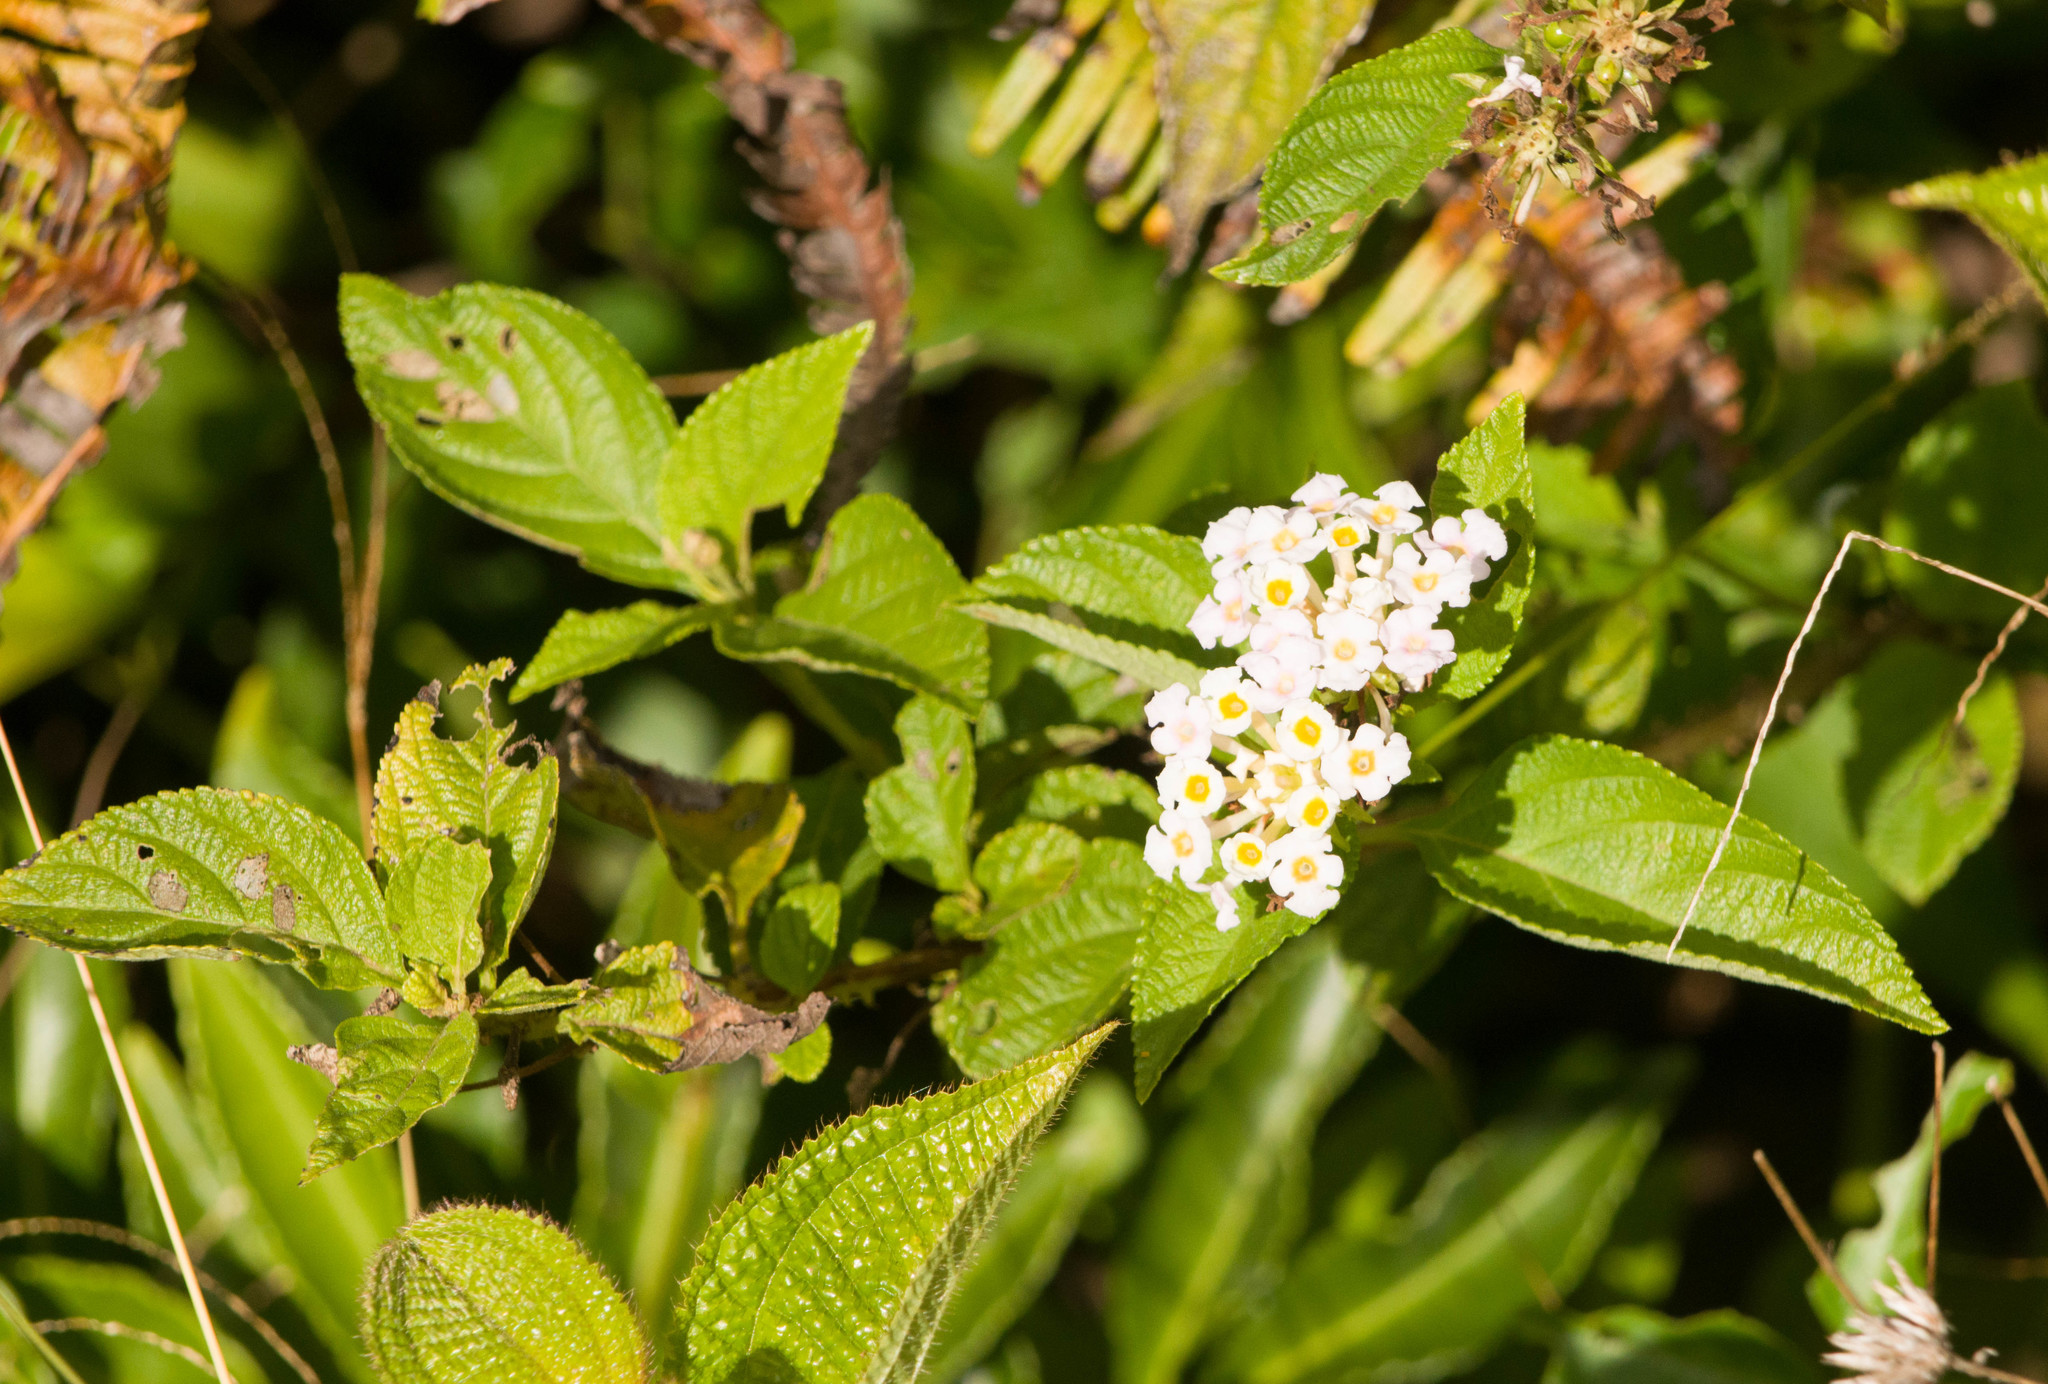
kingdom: Plantae
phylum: Tracheophyta
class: Magnoliopsida
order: Lamiales
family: Verbenaceae
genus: Lantana
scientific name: Lantana camara
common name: Lantana
